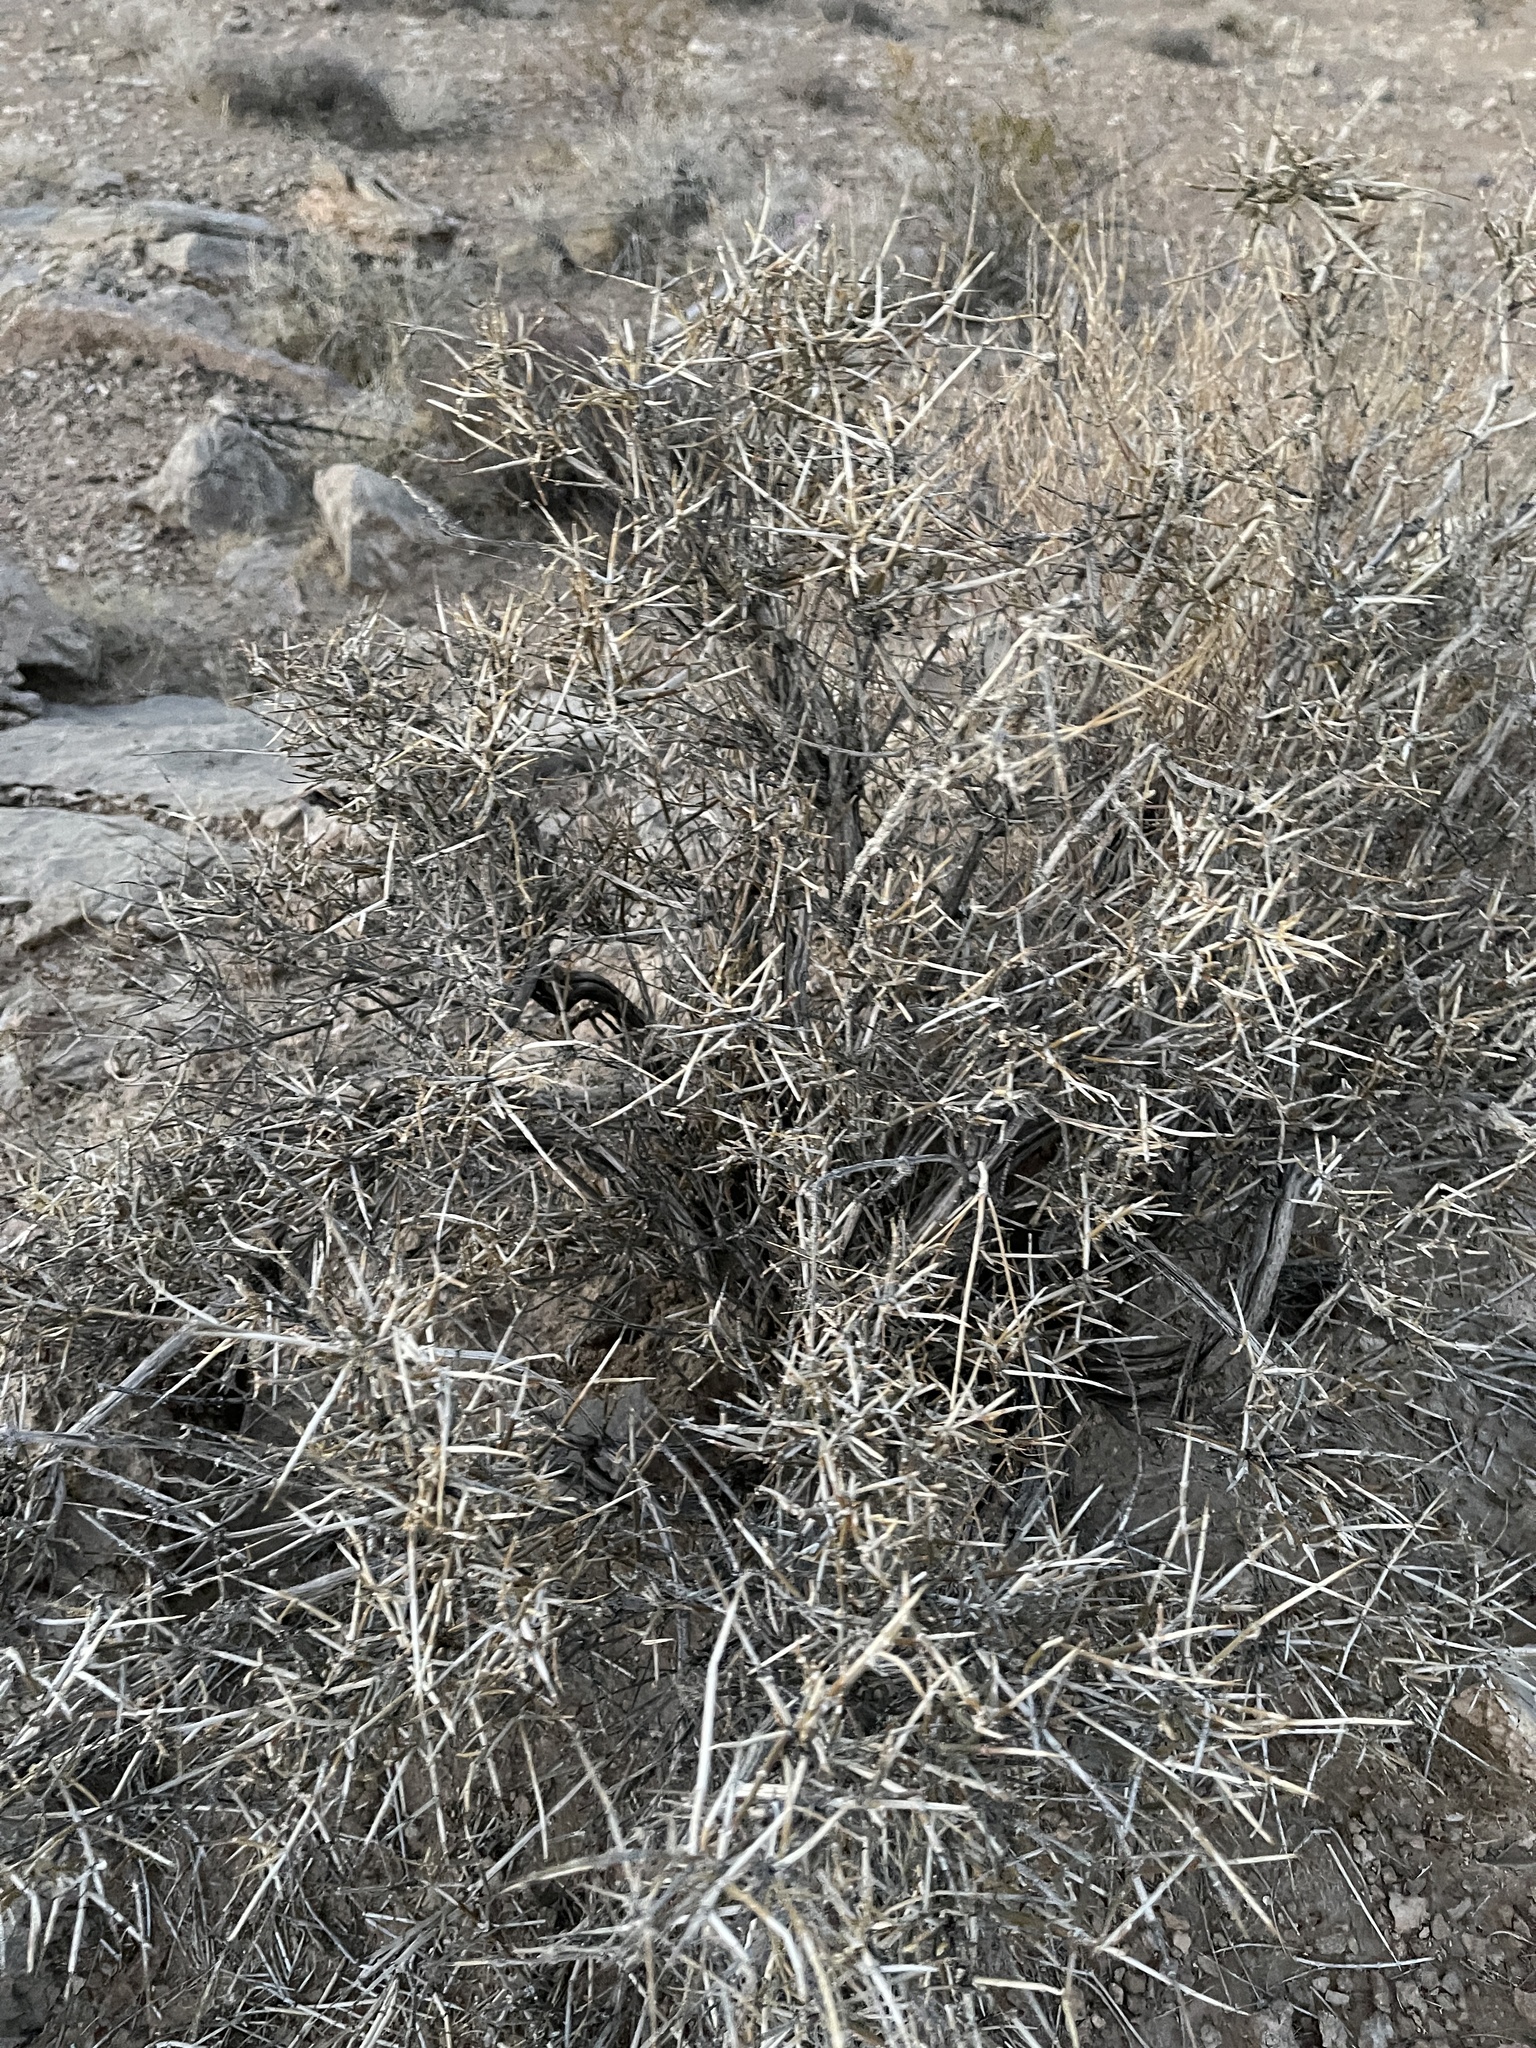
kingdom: Plantae
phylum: Tracheophyta
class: Gnetopsida
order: Ephedrales
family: Ephedraceae
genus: Ephedra
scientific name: Ephedra nevadensis
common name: Gray ephedra
